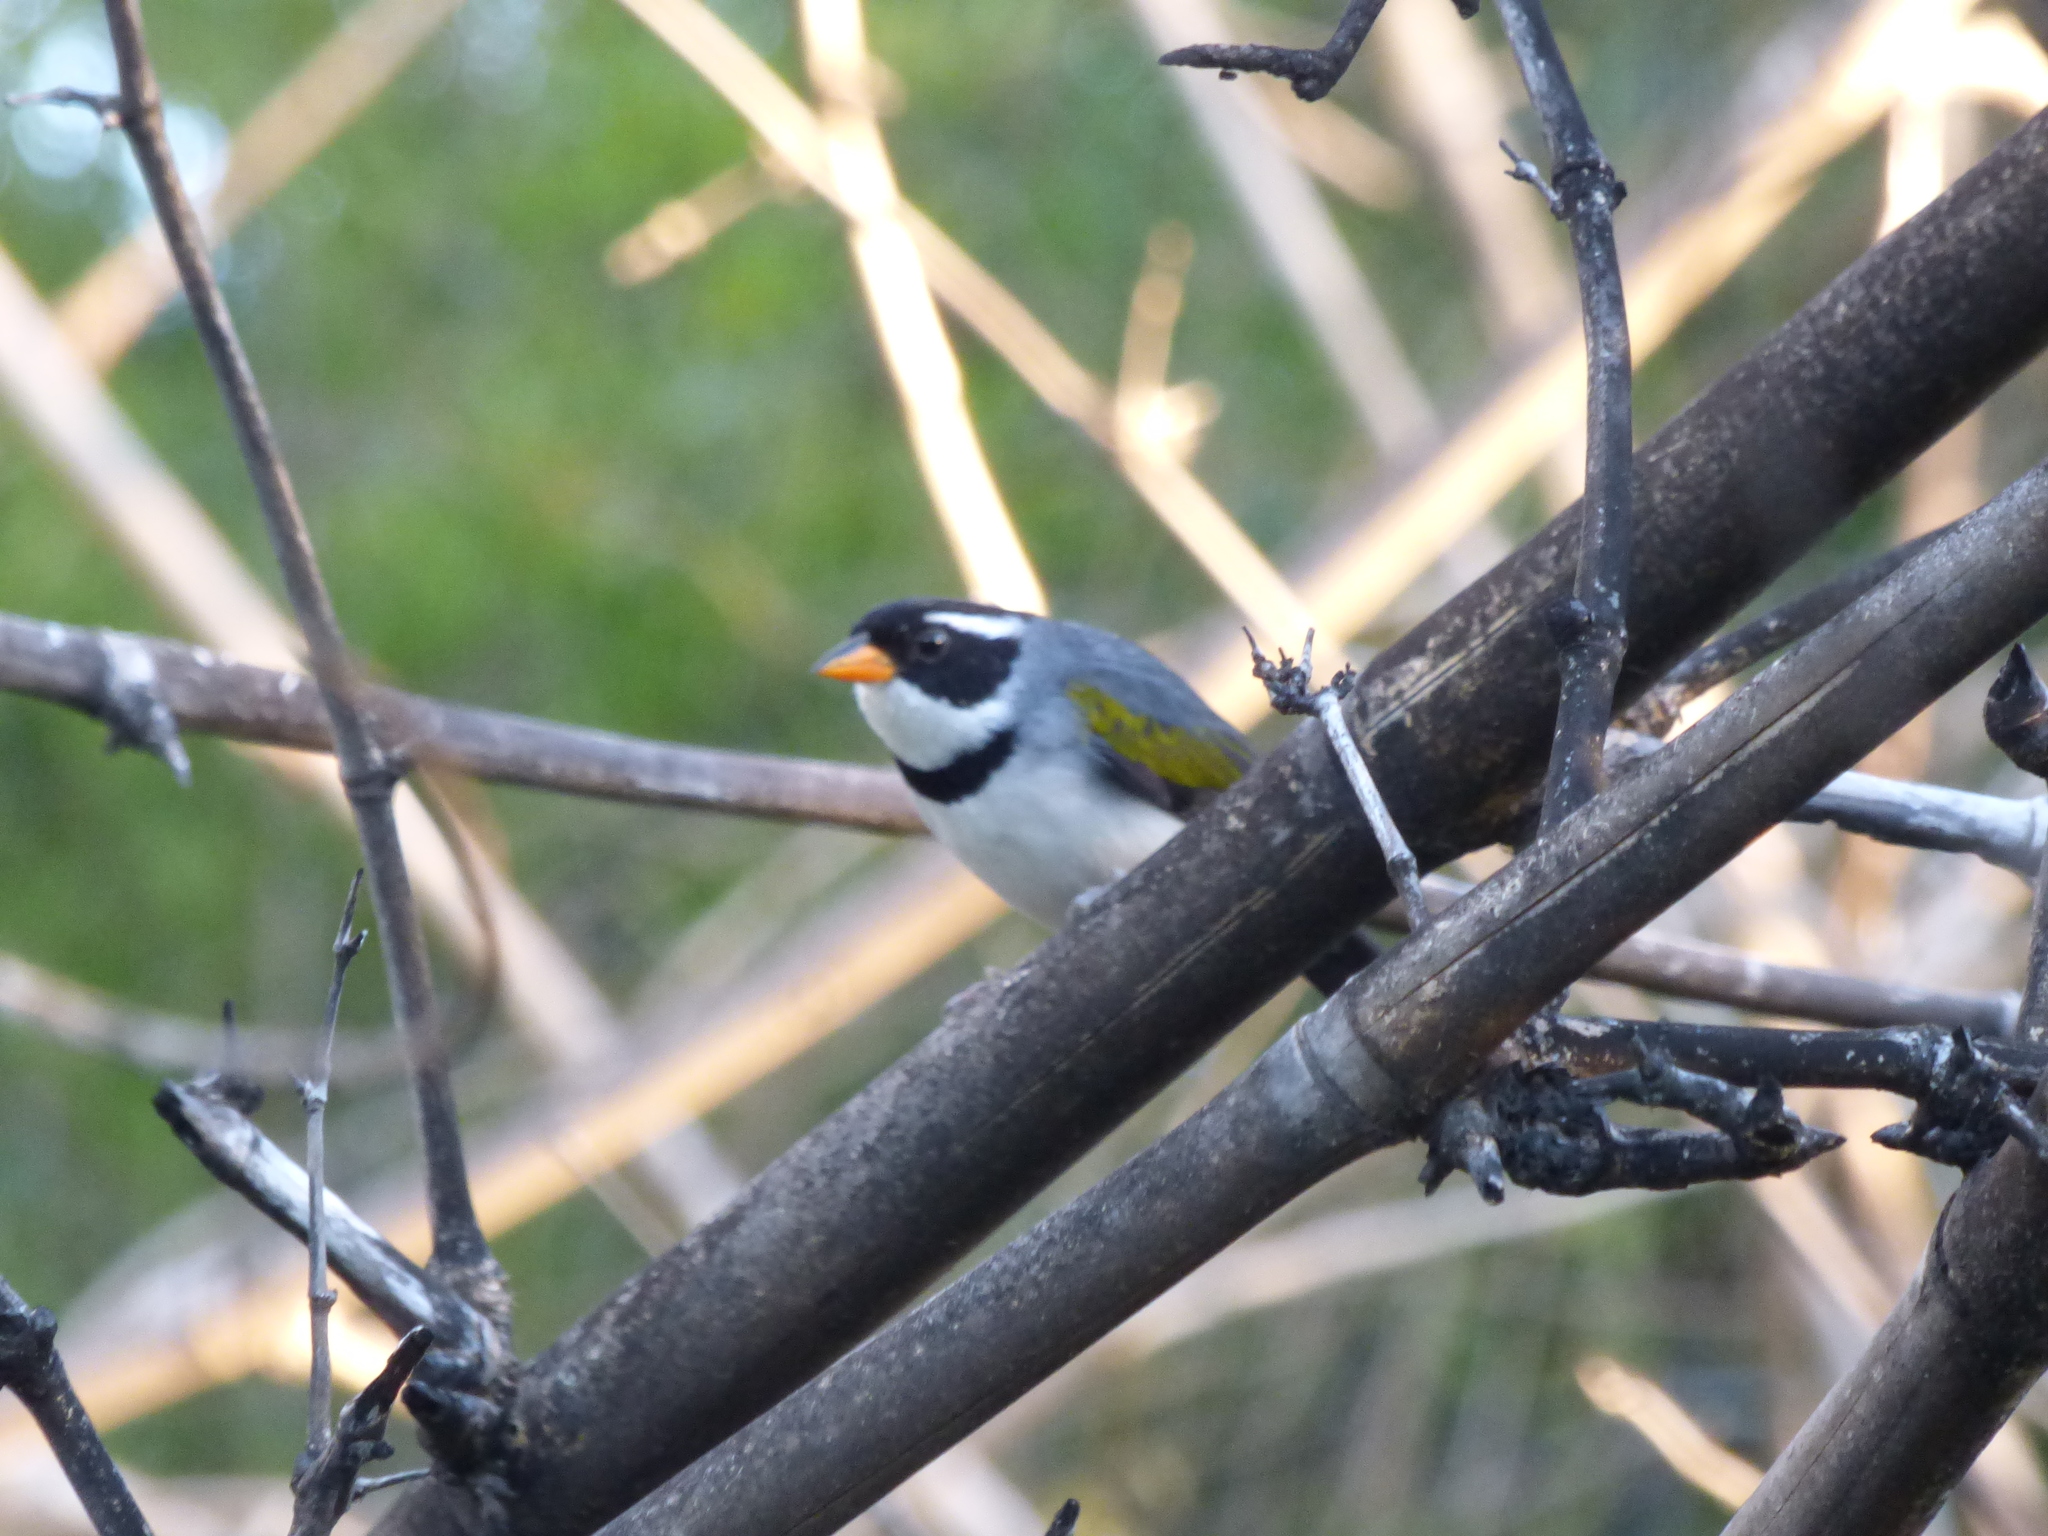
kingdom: Animalia
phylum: Chordata
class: Aves
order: Passeriformes
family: Passerellidae
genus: Arremon
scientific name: Arremon flavirostris
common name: Saffron-billed sparrow
